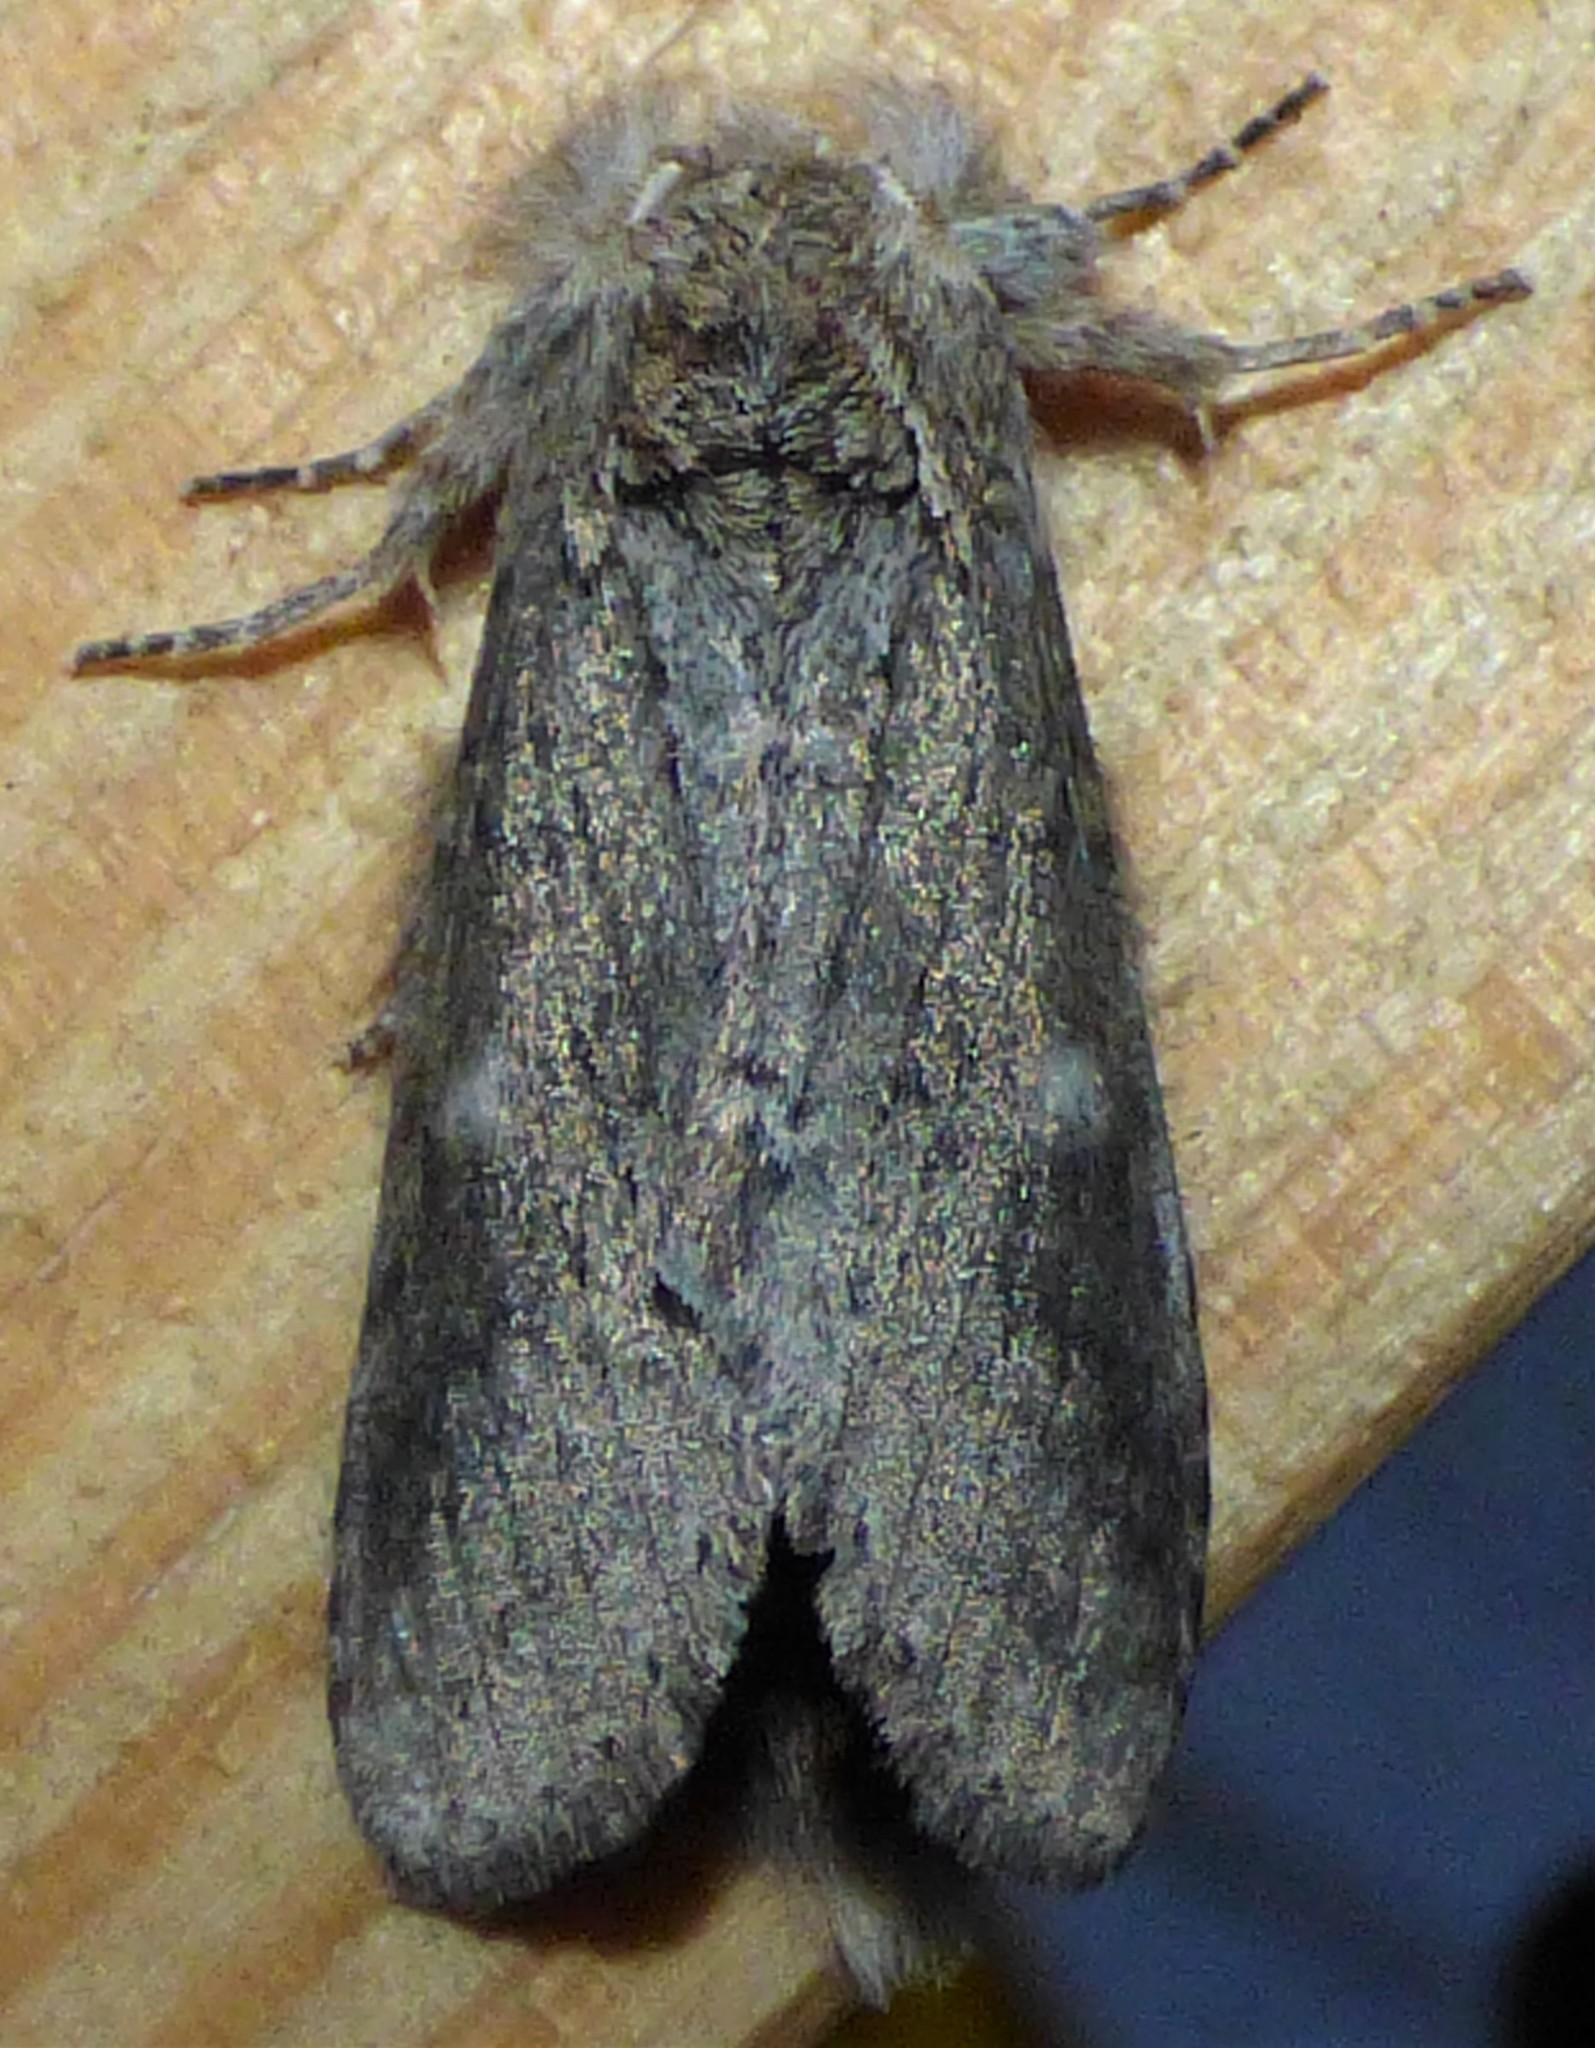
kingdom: Animalia
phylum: Arthropoda
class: Insecta
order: Lepidoptera
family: Notodontidae
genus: Lochmaeus
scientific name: Lochmaeus manteo
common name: Variable oakleaf caterpillar moth
